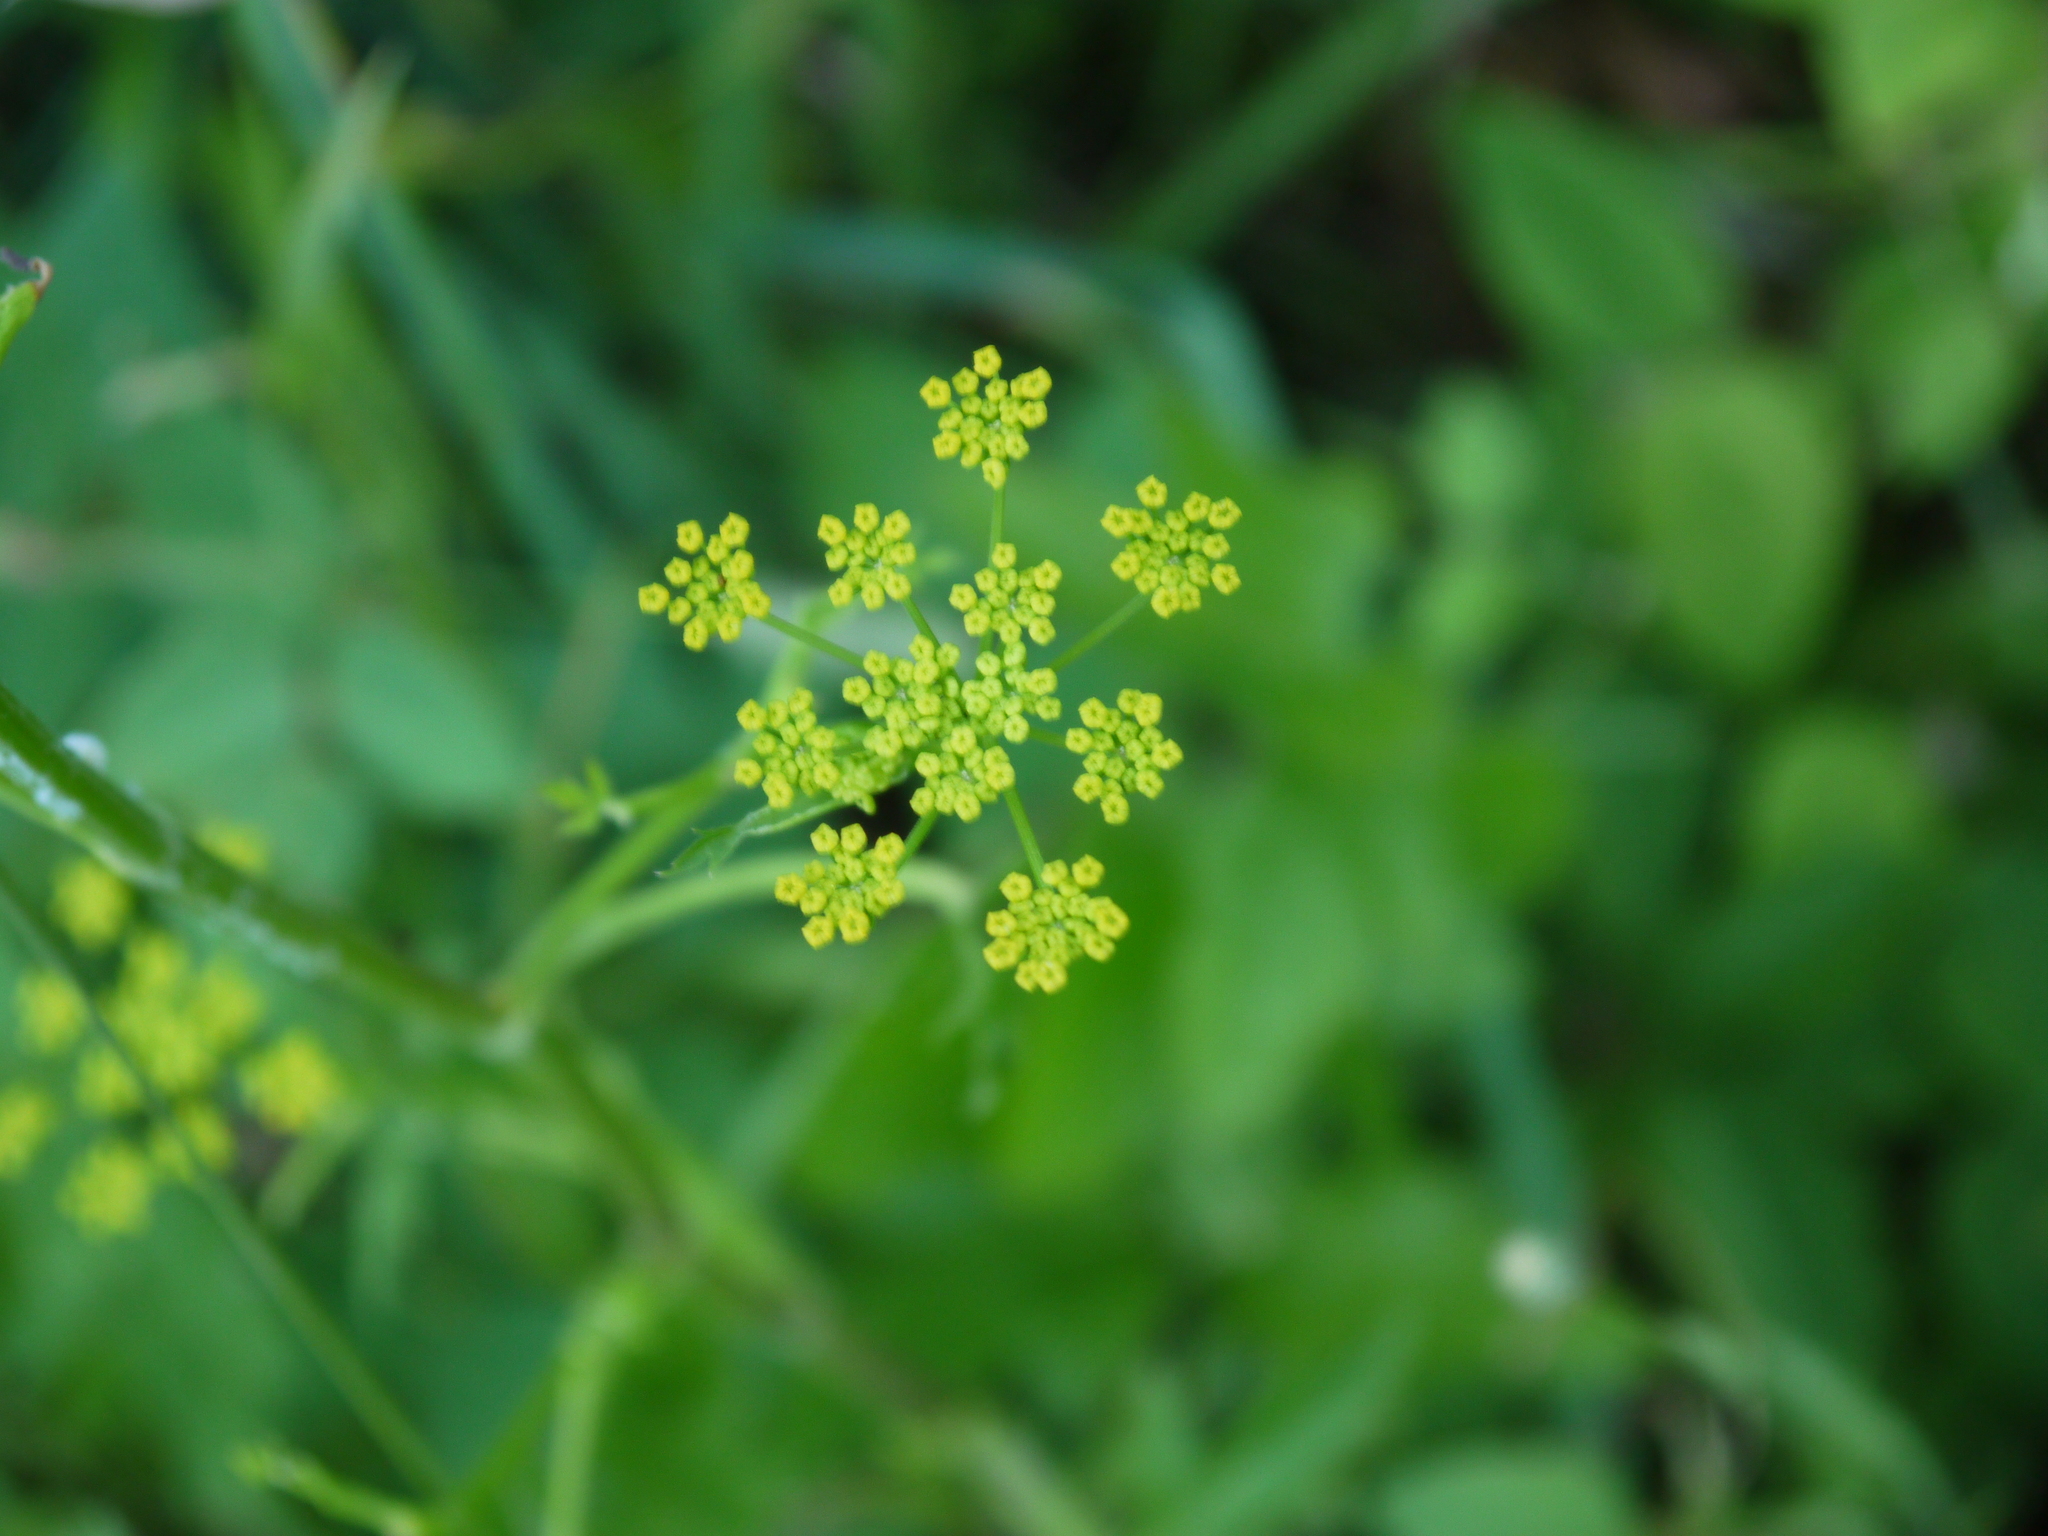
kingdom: Plantae
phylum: Tracheophyta
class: Magnoliopsida
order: Apiales
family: Apiaceae
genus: Pastinaca
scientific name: Pastinaca sativa
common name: Wild parsnip
